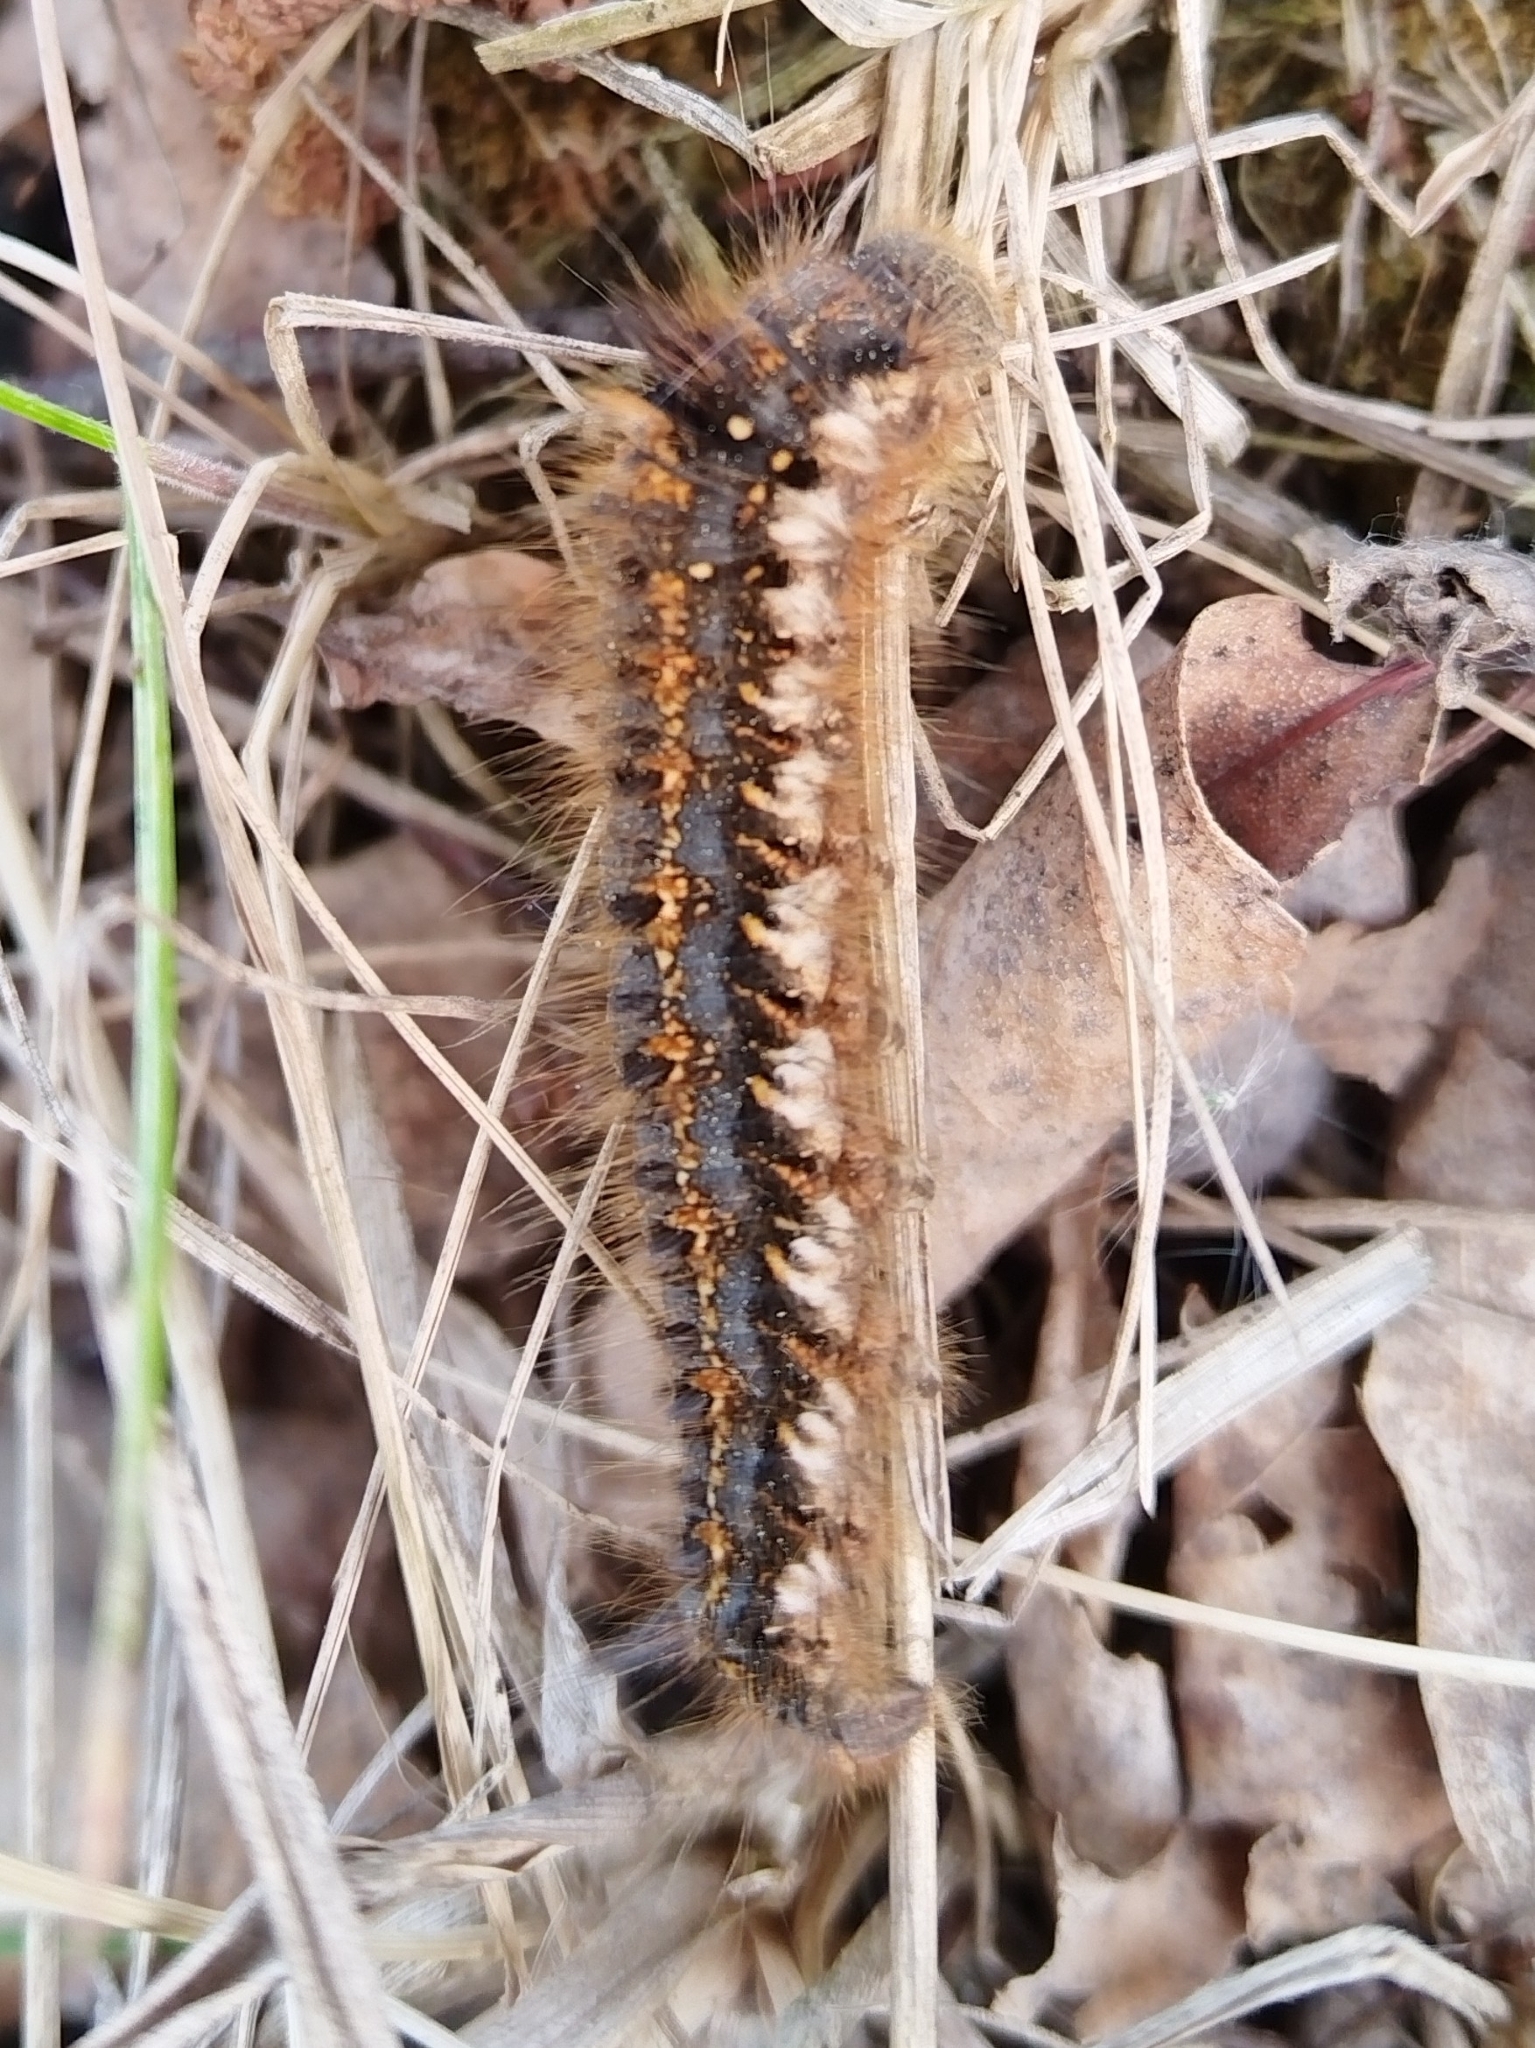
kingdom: Animalia
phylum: Arthropoda
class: Insecta
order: Lepidoptera
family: Lasiocampidae
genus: Euthrix
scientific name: Euthrix potatoria
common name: Drinker
